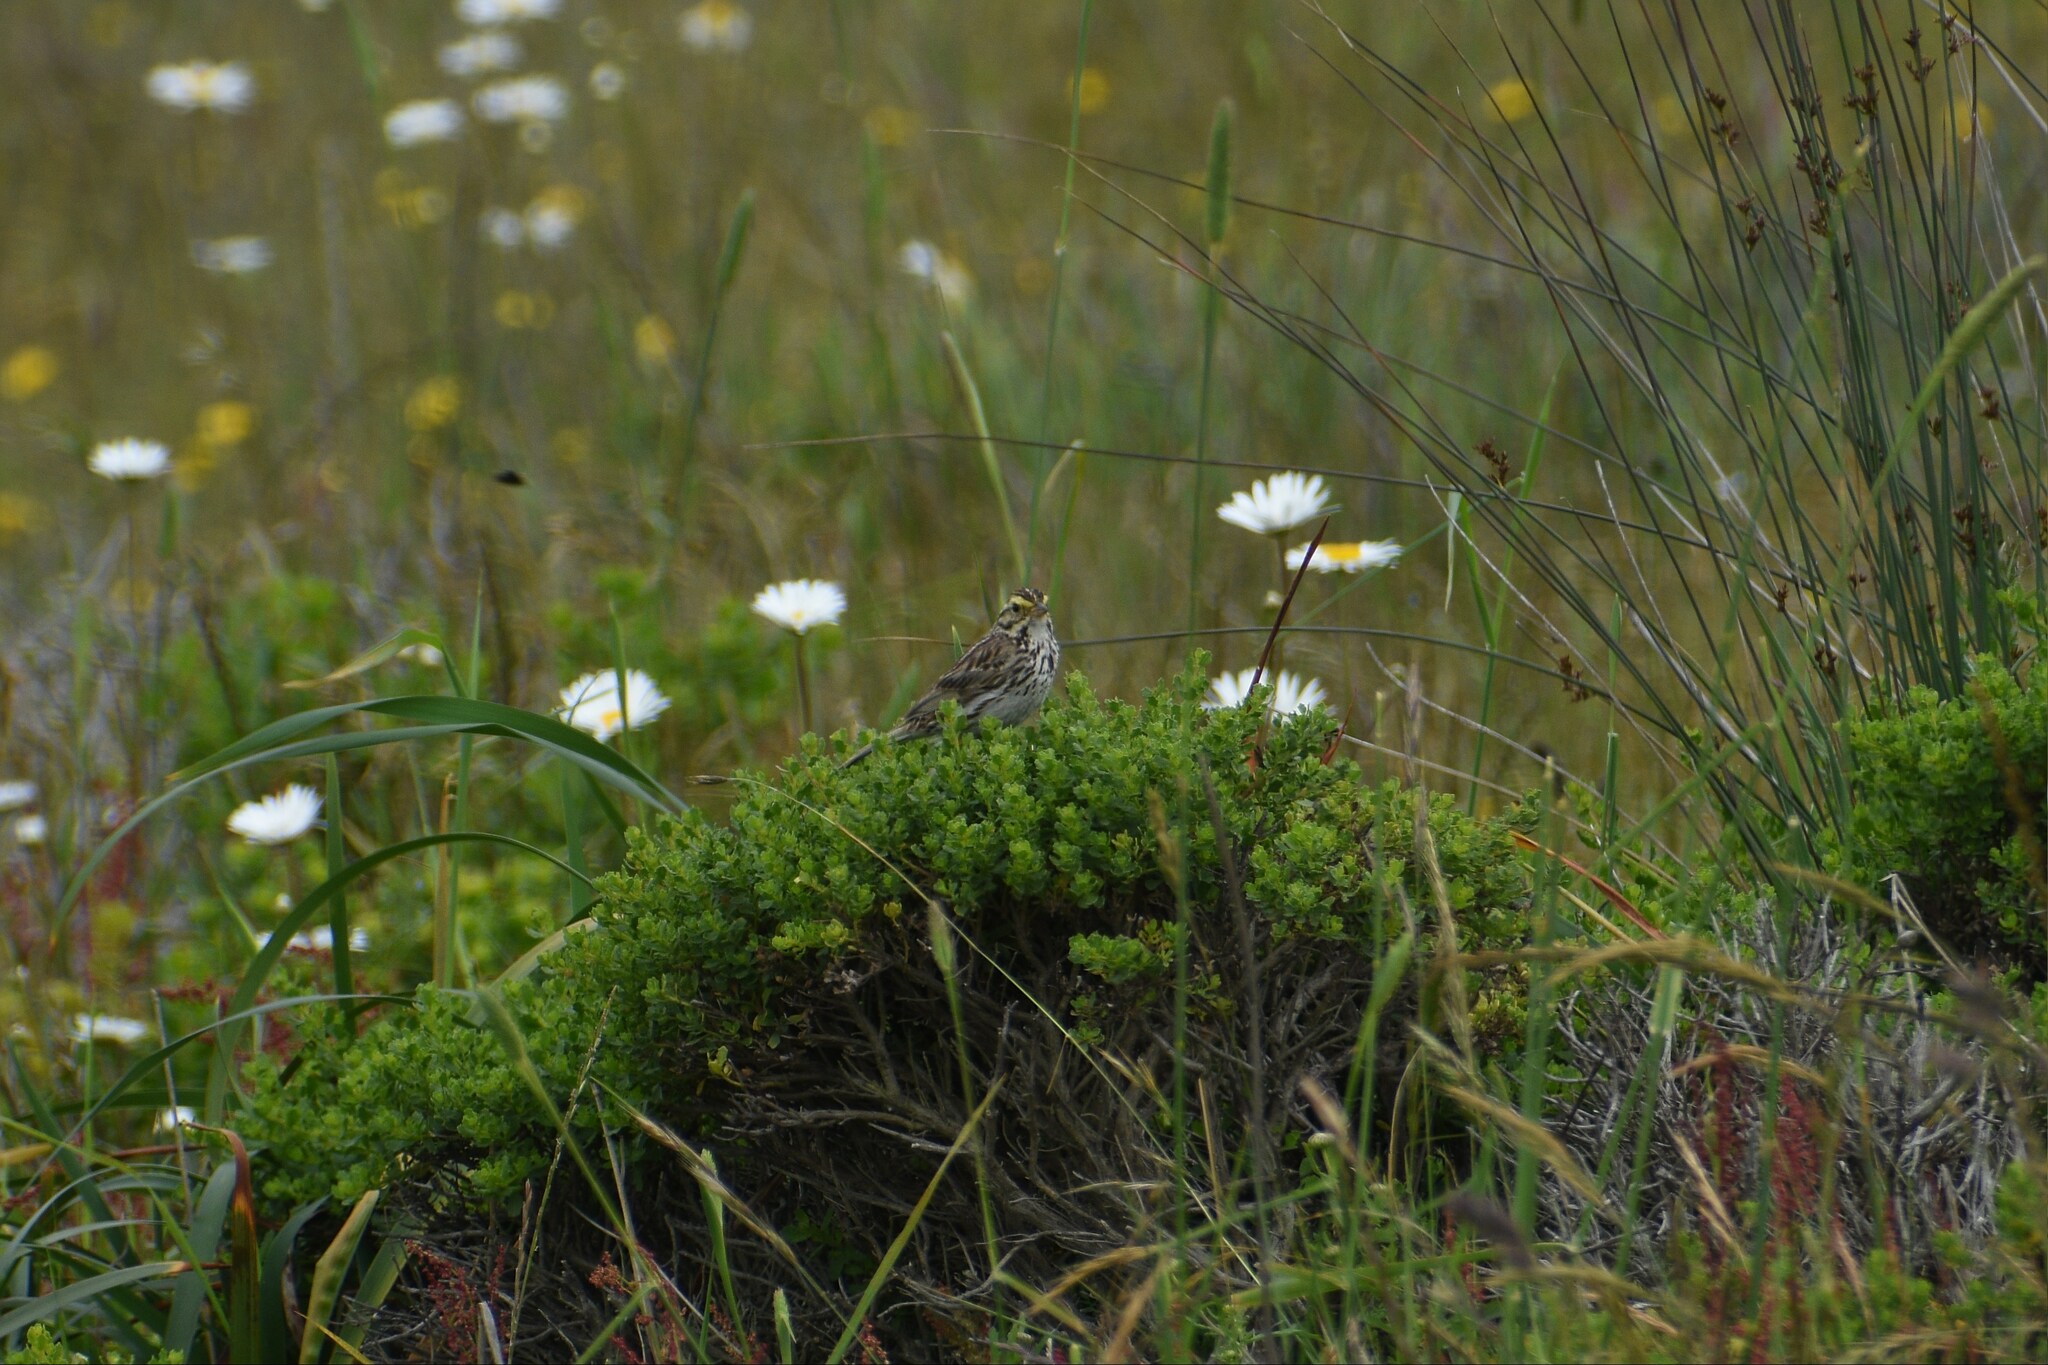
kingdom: Animalia
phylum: Chordata
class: Aves
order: Passeriformes
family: Passerellidae
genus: Passerculus
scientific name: Passerculus sandwichensis
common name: Savannah sparrow
